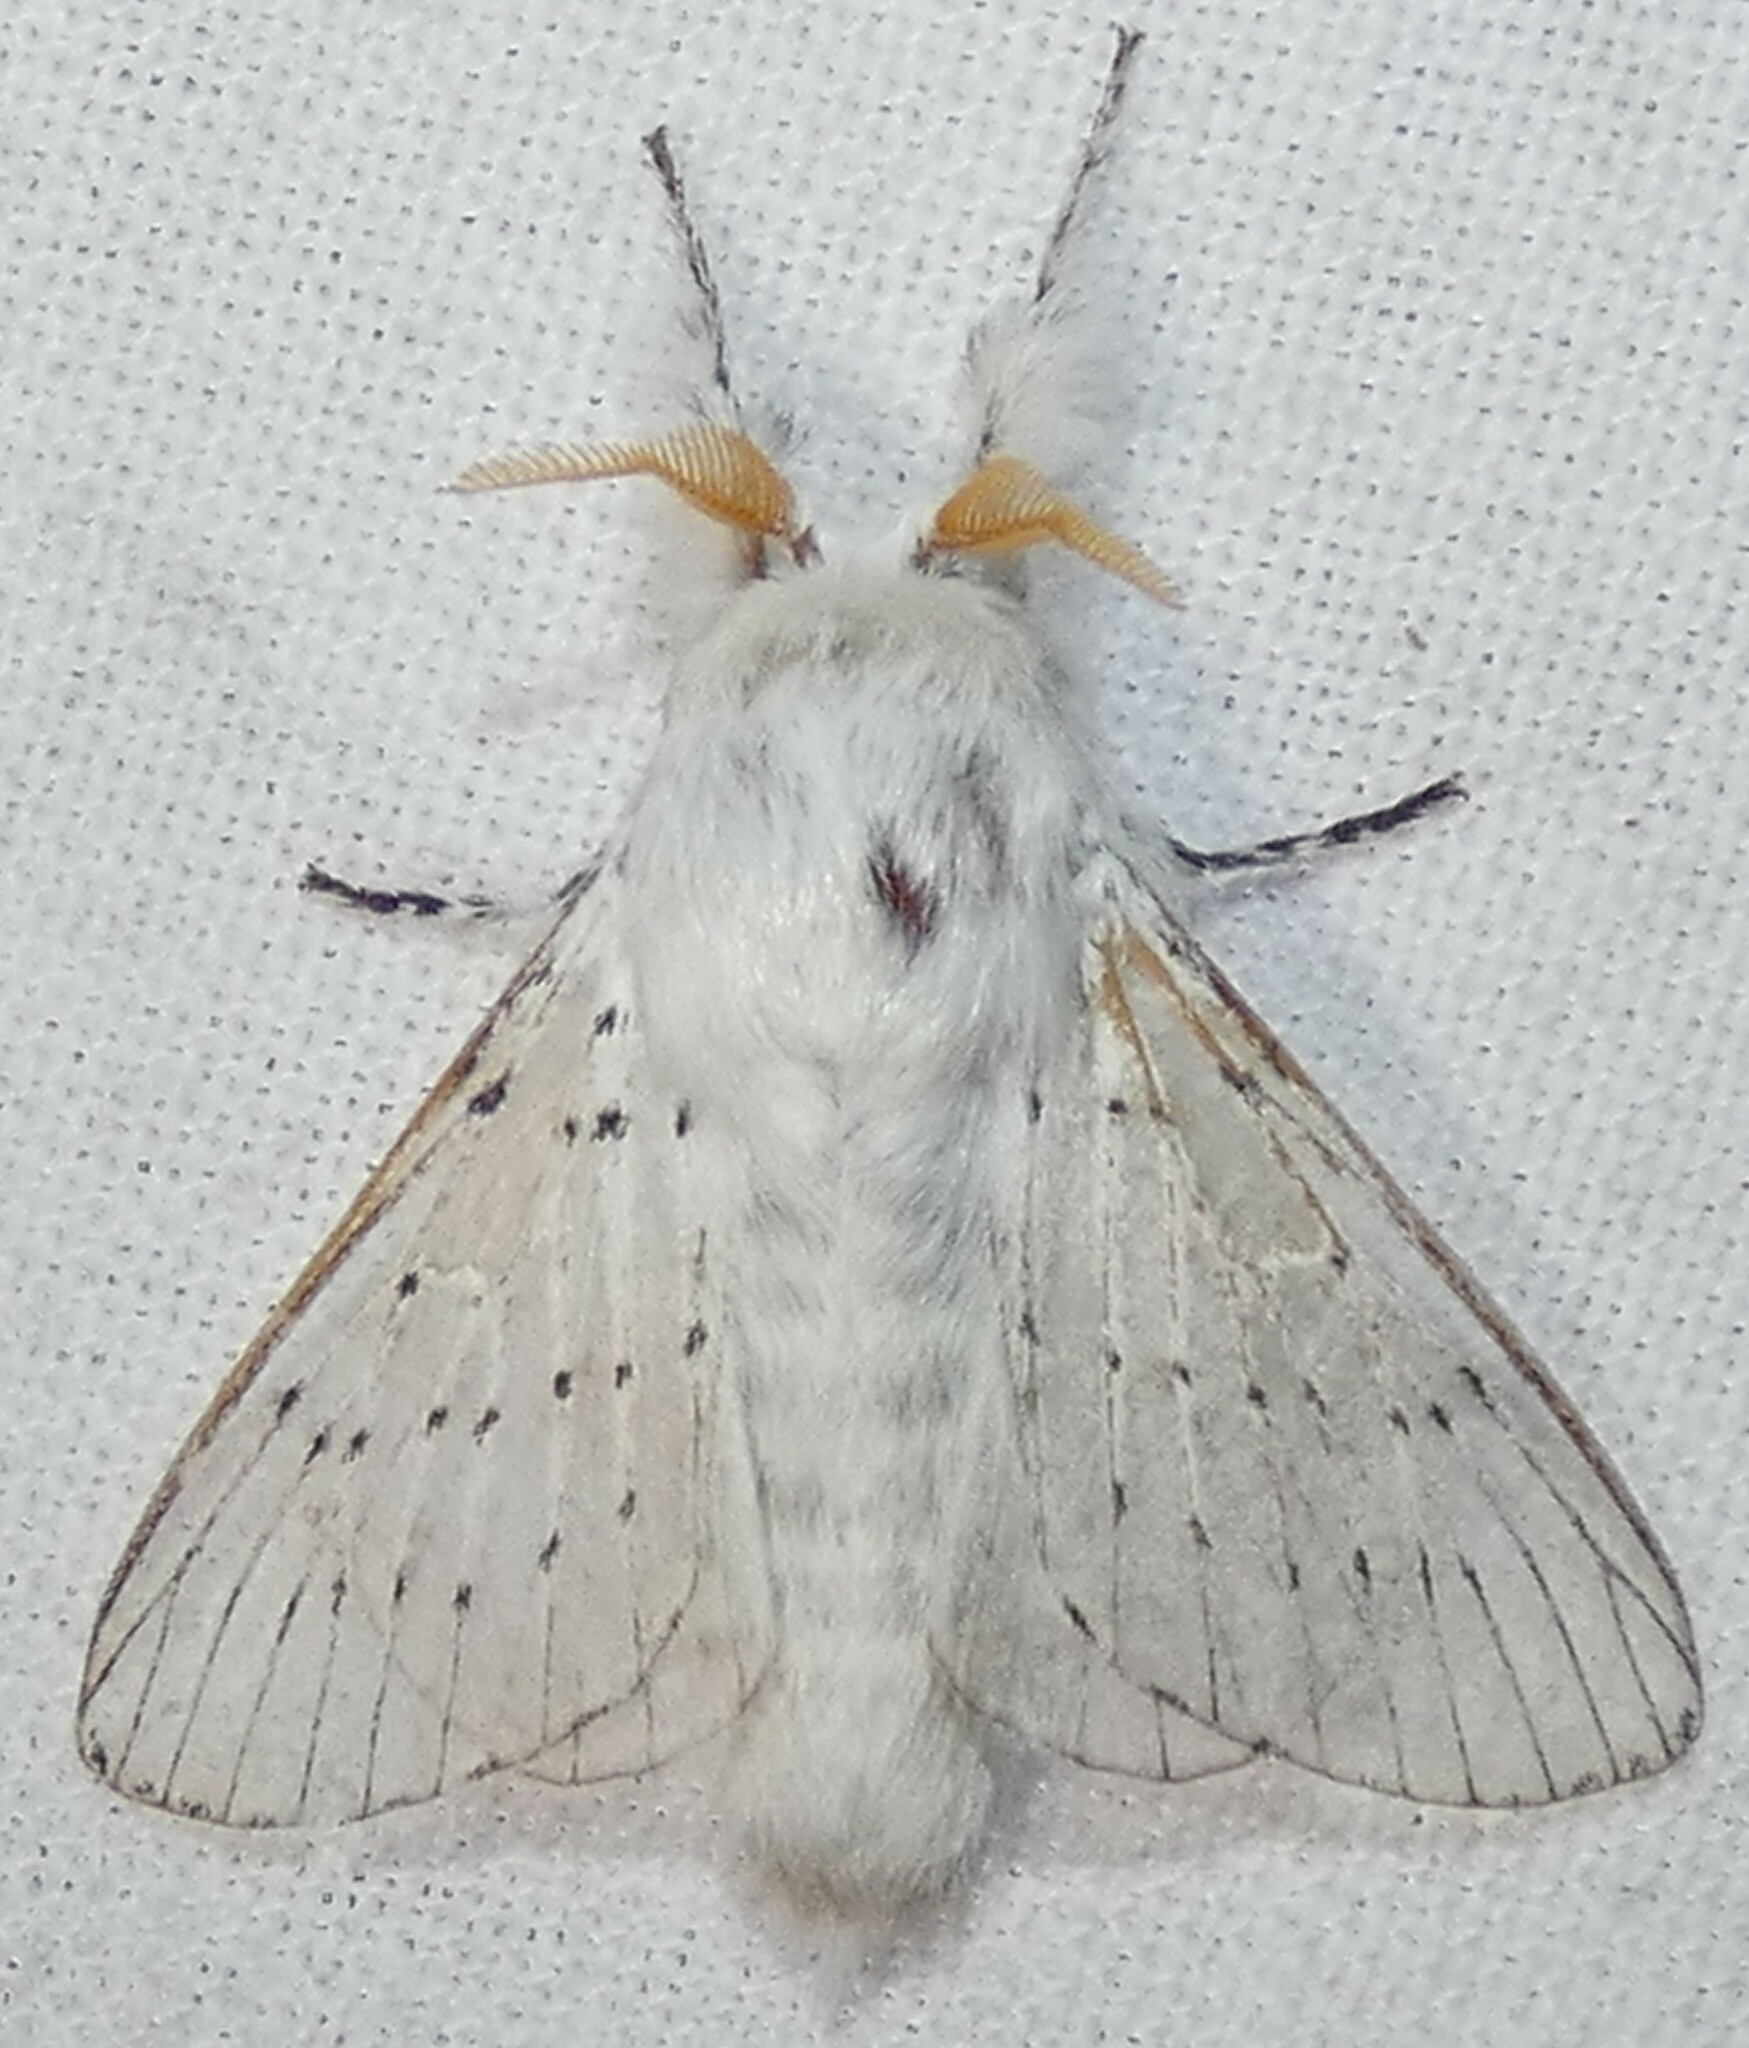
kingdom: Animalia
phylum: Arthropoda
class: Insecta
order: Lepidoptera
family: Lasiocampidae
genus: Artace
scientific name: Artace cribrarius
